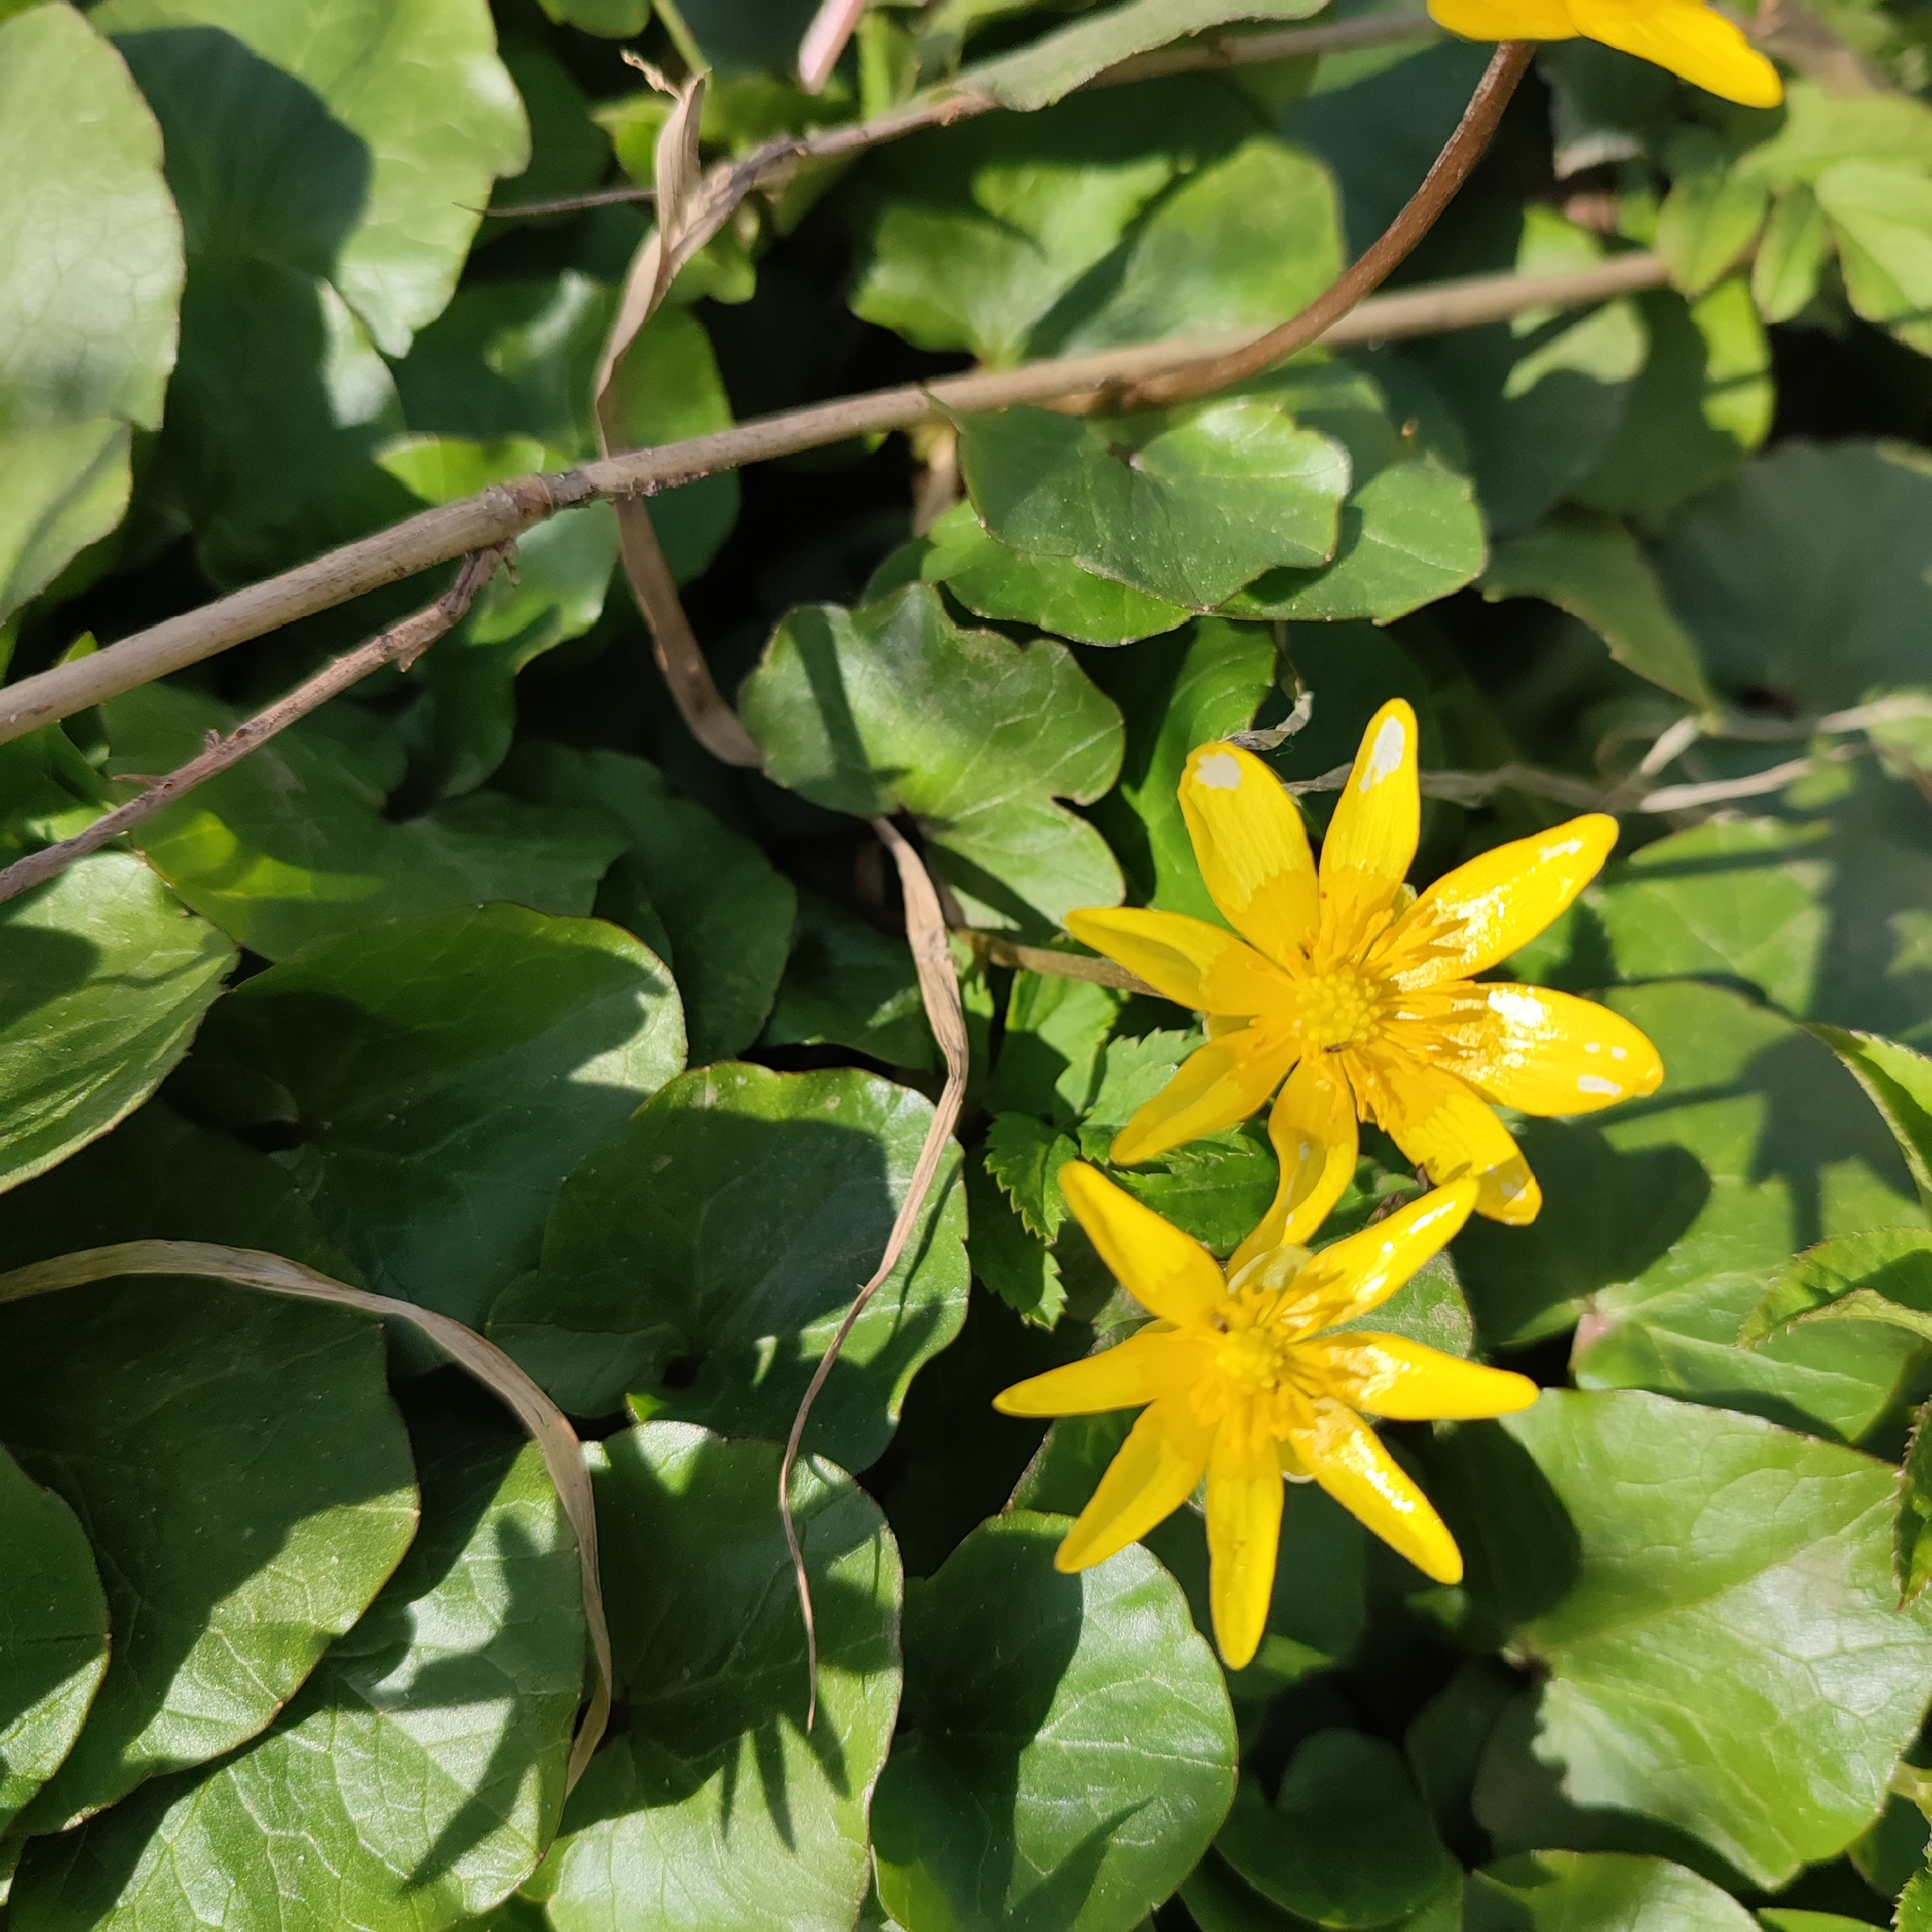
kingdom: Plantae
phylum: Tracheophyta
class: Magnoliopsida
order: Ranunculales
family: Ranunculaceae
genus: Ficaria
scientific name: Ficaria verna
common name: Lesser celandine
